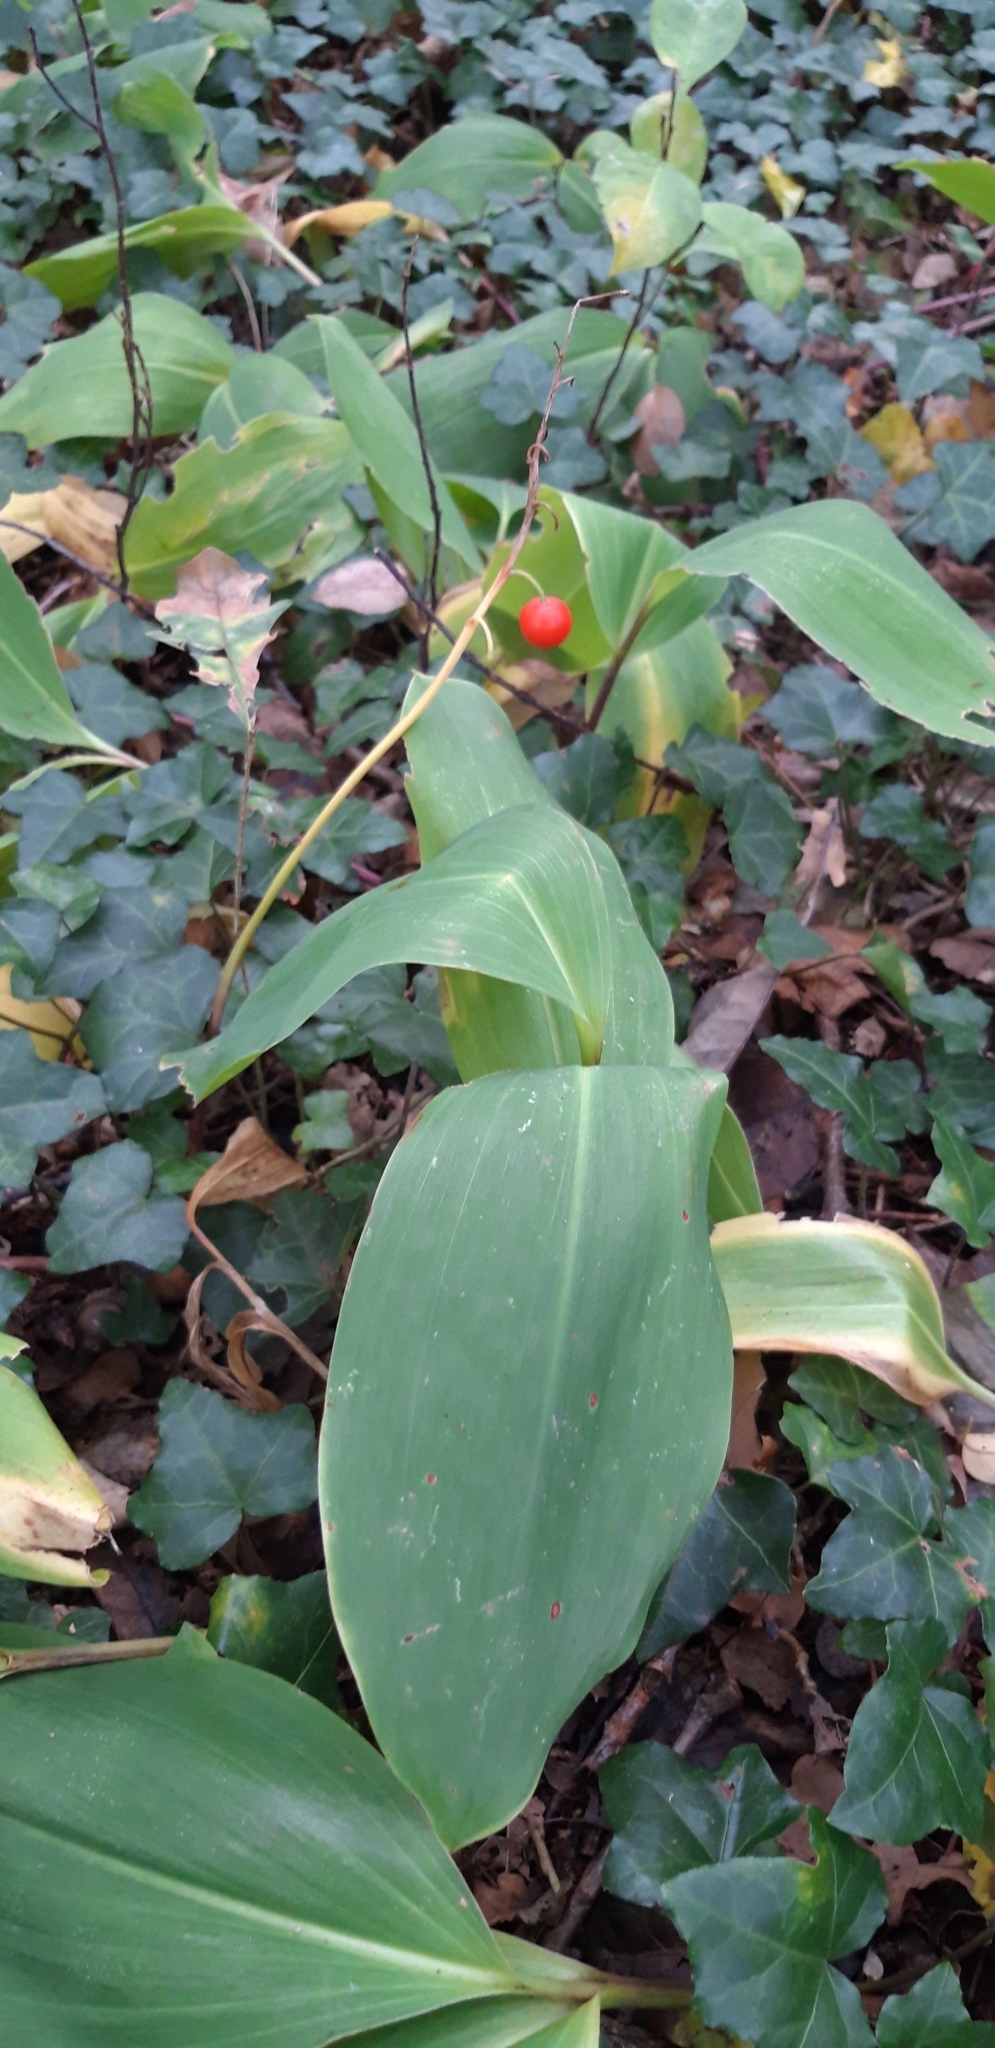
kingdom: Plantae
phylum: Tracheophyta
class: Liliopsida
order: Asparagales
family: Asparagaceae
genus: Convallaria
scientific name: Convallaria majalis
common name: Lily-of-the-valley
